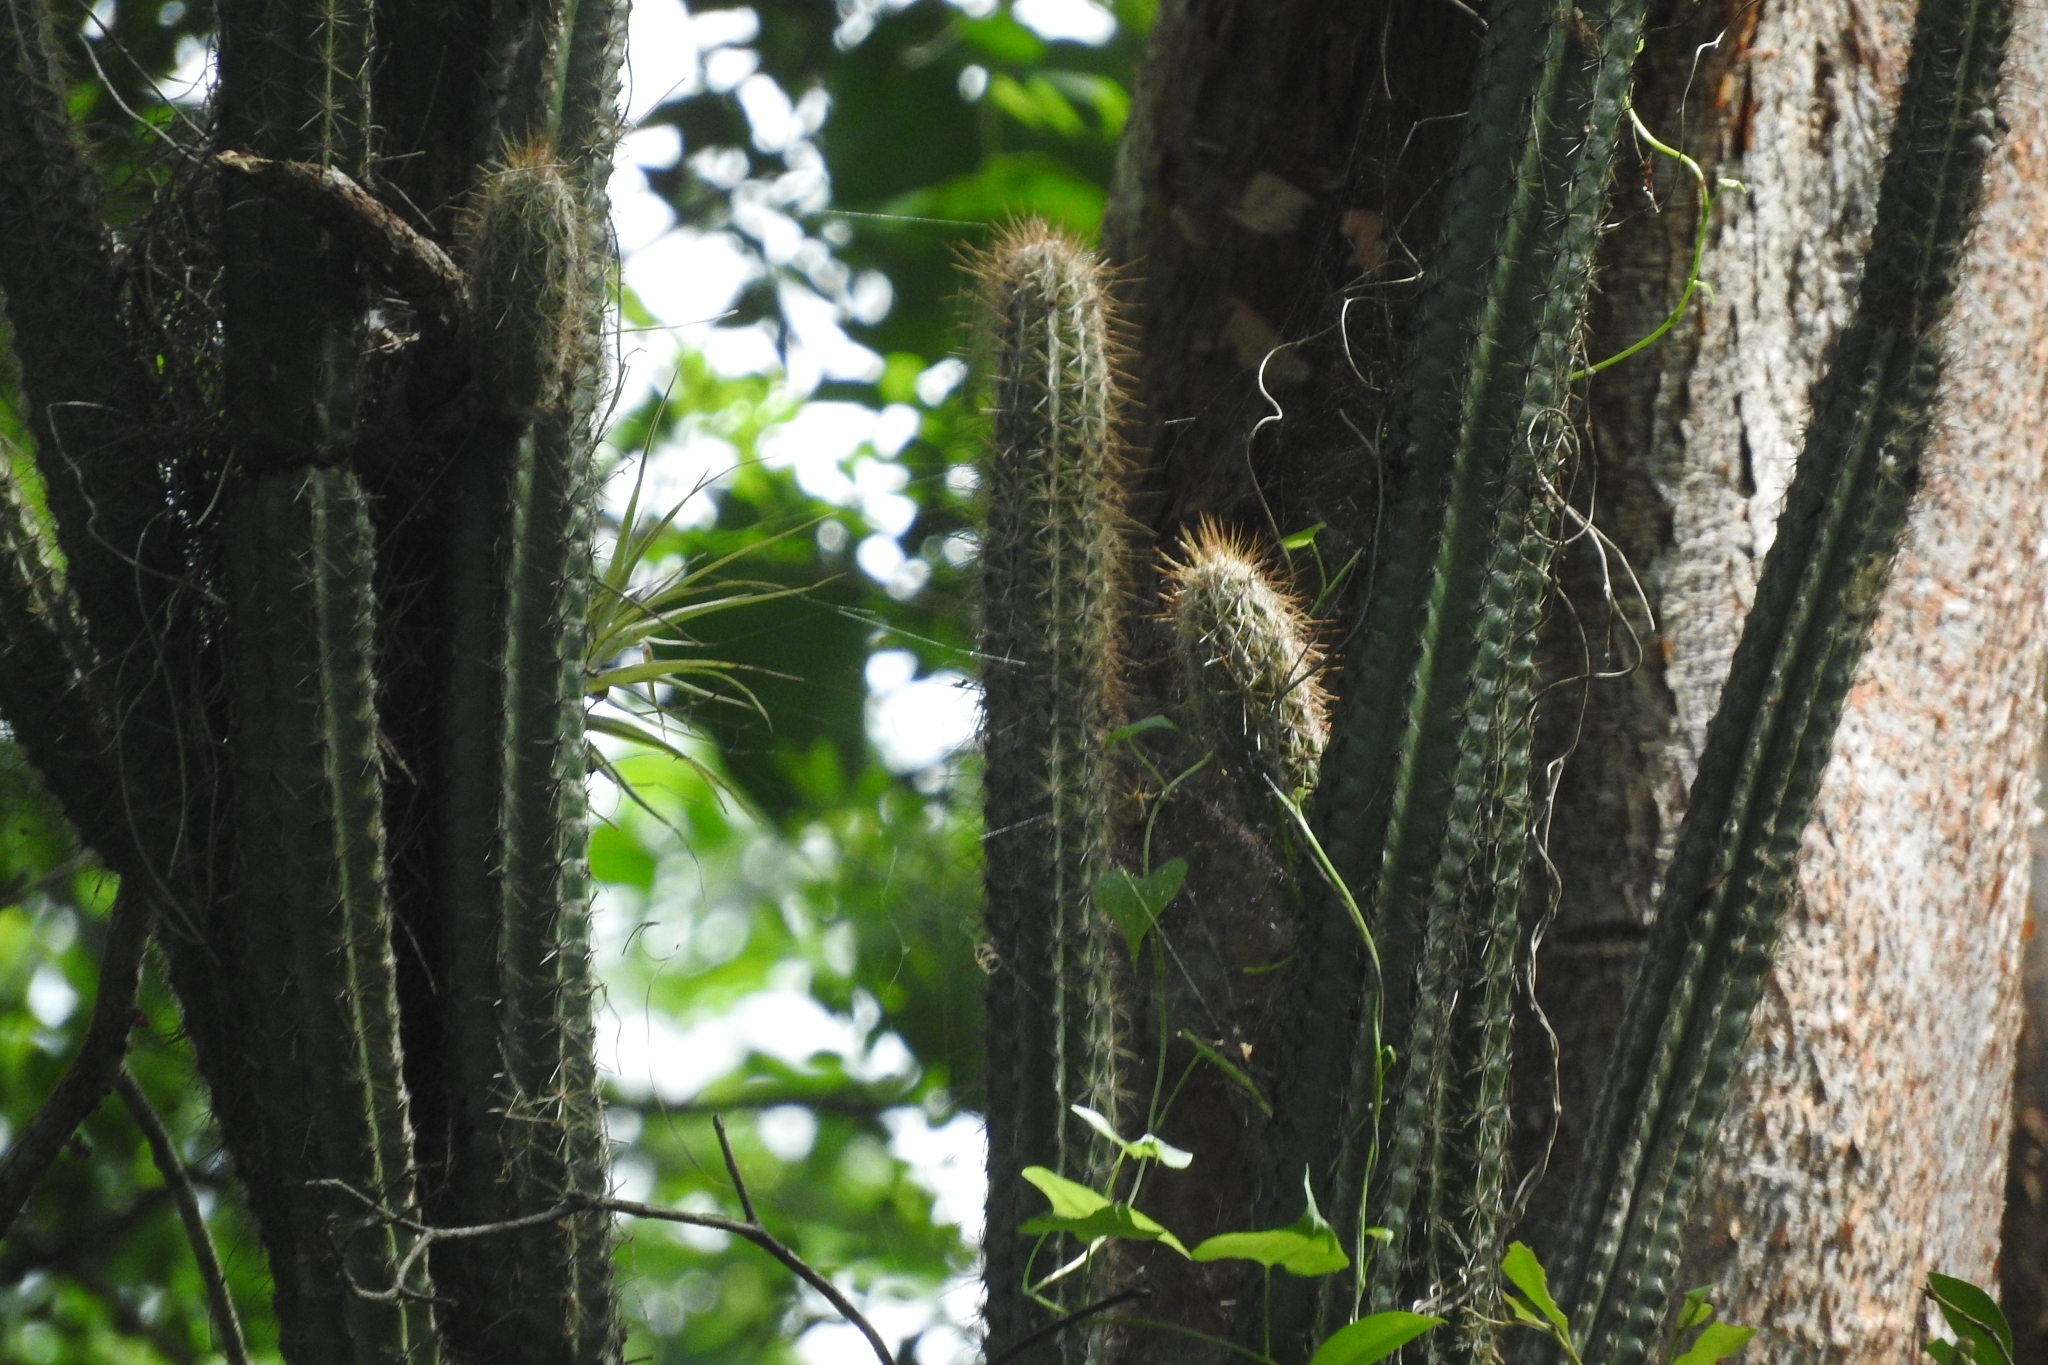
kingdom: Plantae
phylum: Tracheophyta
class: Magnoliopsida
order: Caryophyllales
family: Cactaceae
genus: Pilosocereus
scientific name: Pilosocereus gaumeri
